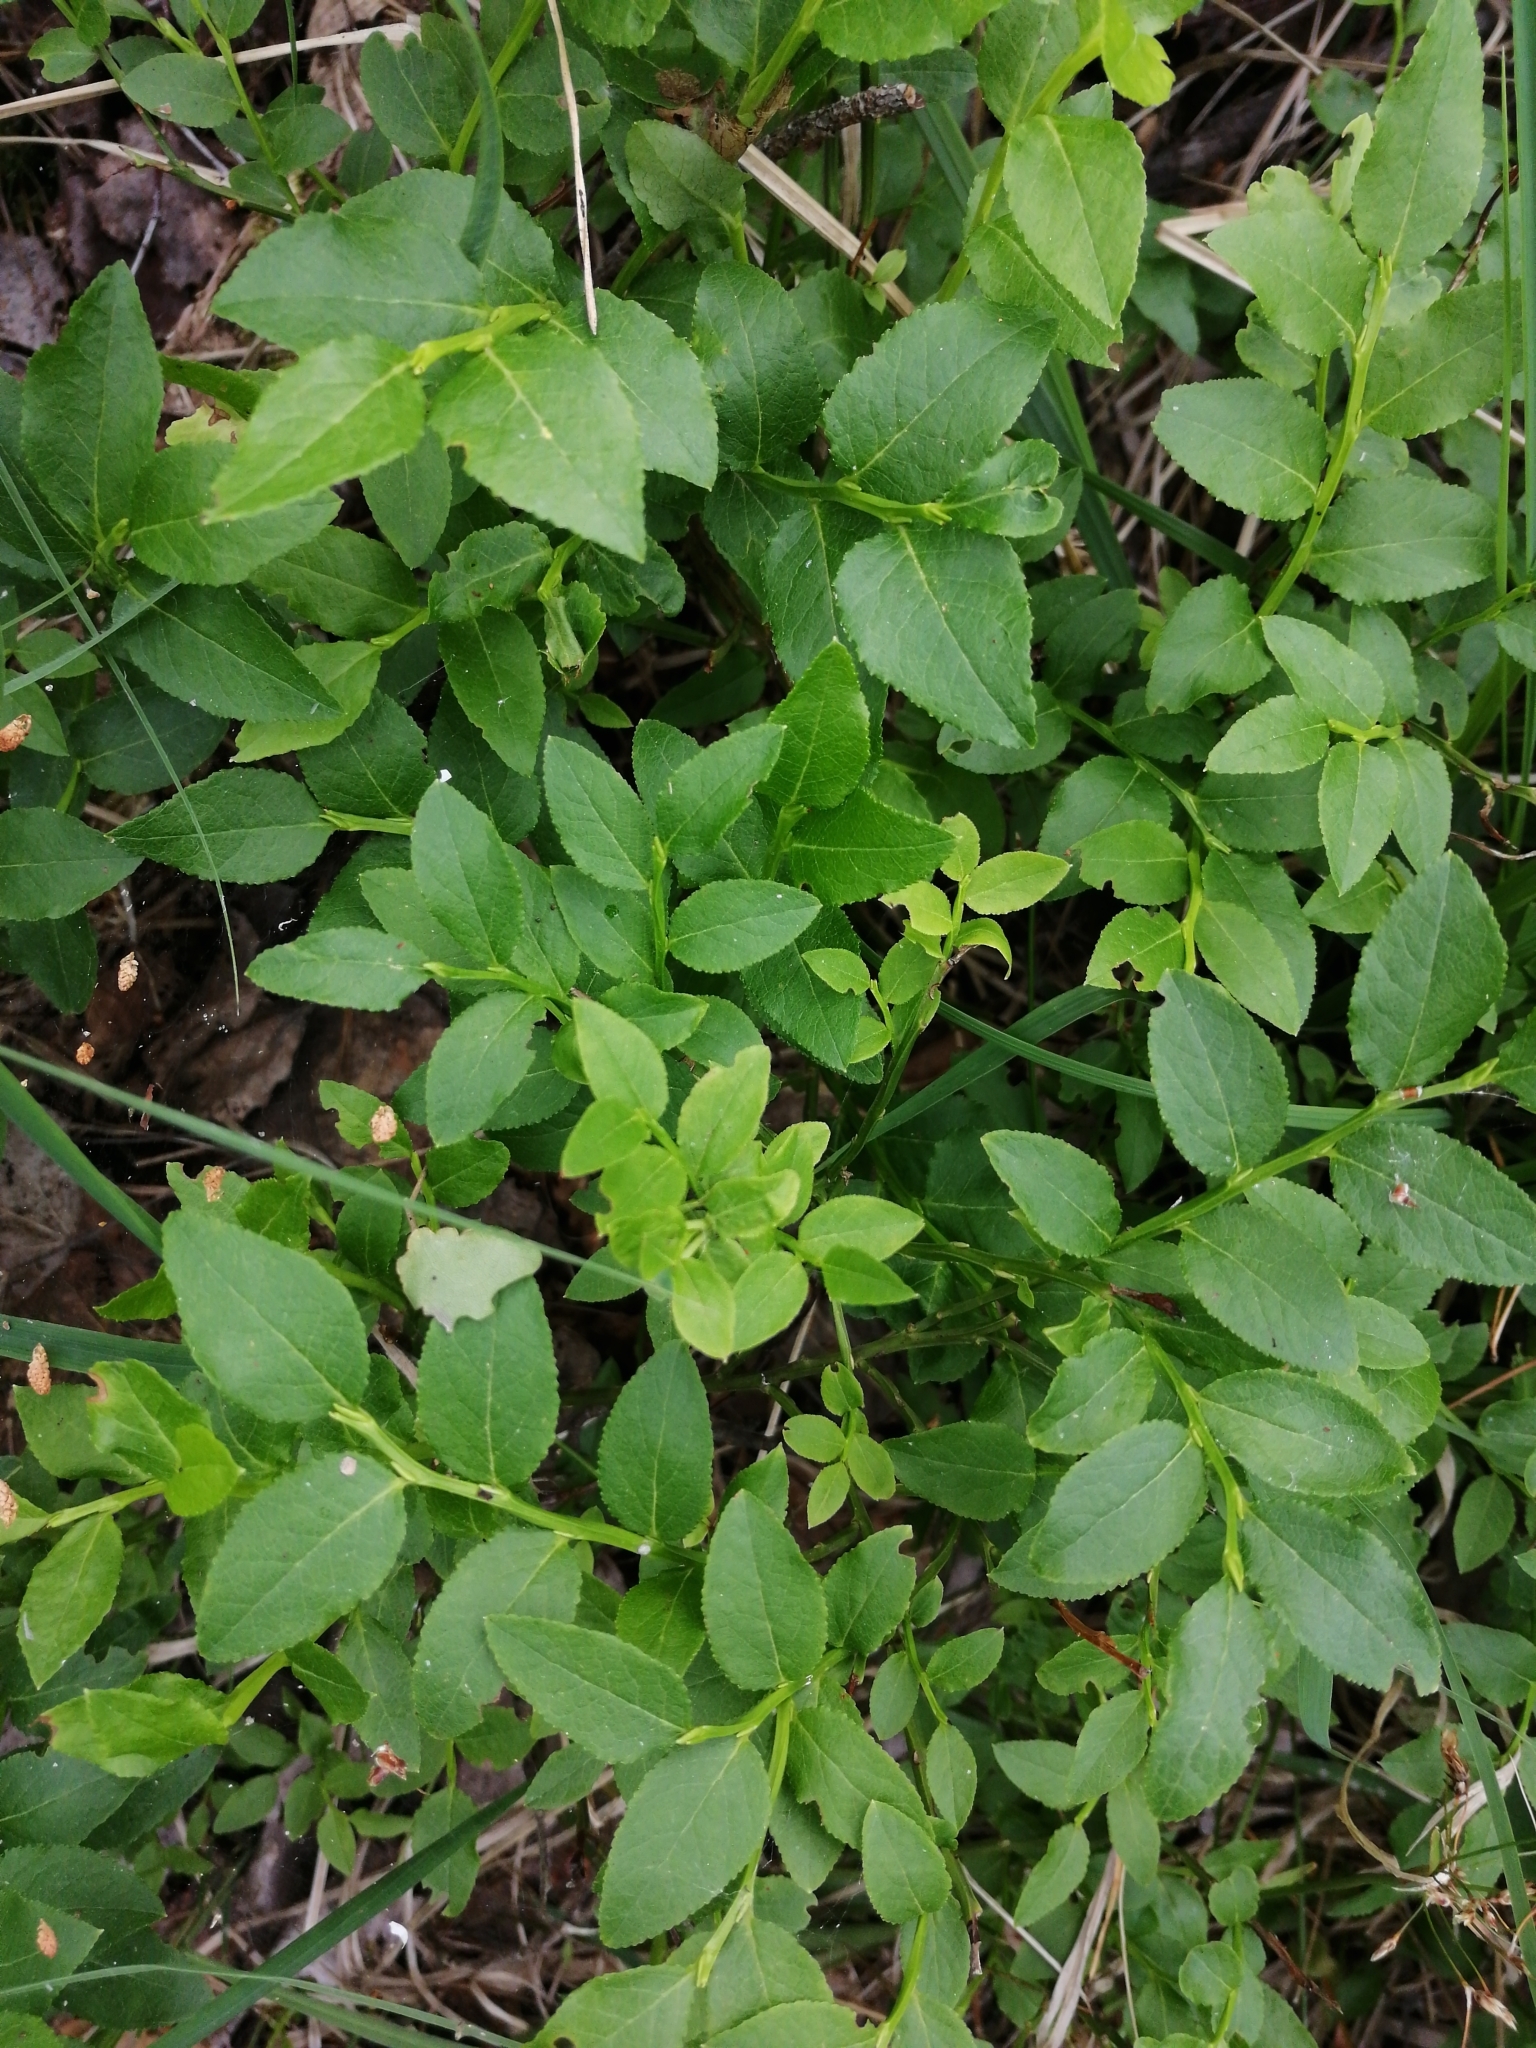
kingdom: Plantae
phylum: Tracheophyta
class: Magnoliopsida
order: Ericales
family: Ericaceae
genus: Vaccinium
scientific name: Vaccinium myrtillus
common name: Bilberry
